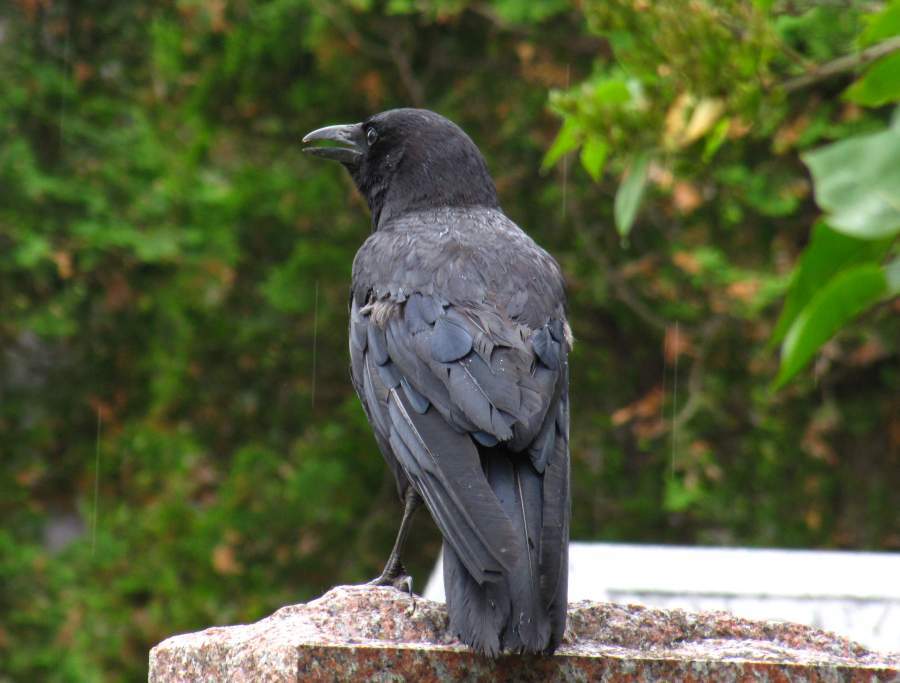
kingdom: Animalia
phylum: Chordata
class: Aves
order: Passeriformes
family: Corvidae
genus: Corvus
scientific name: Corvus brachyrhynchos
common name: American crow
